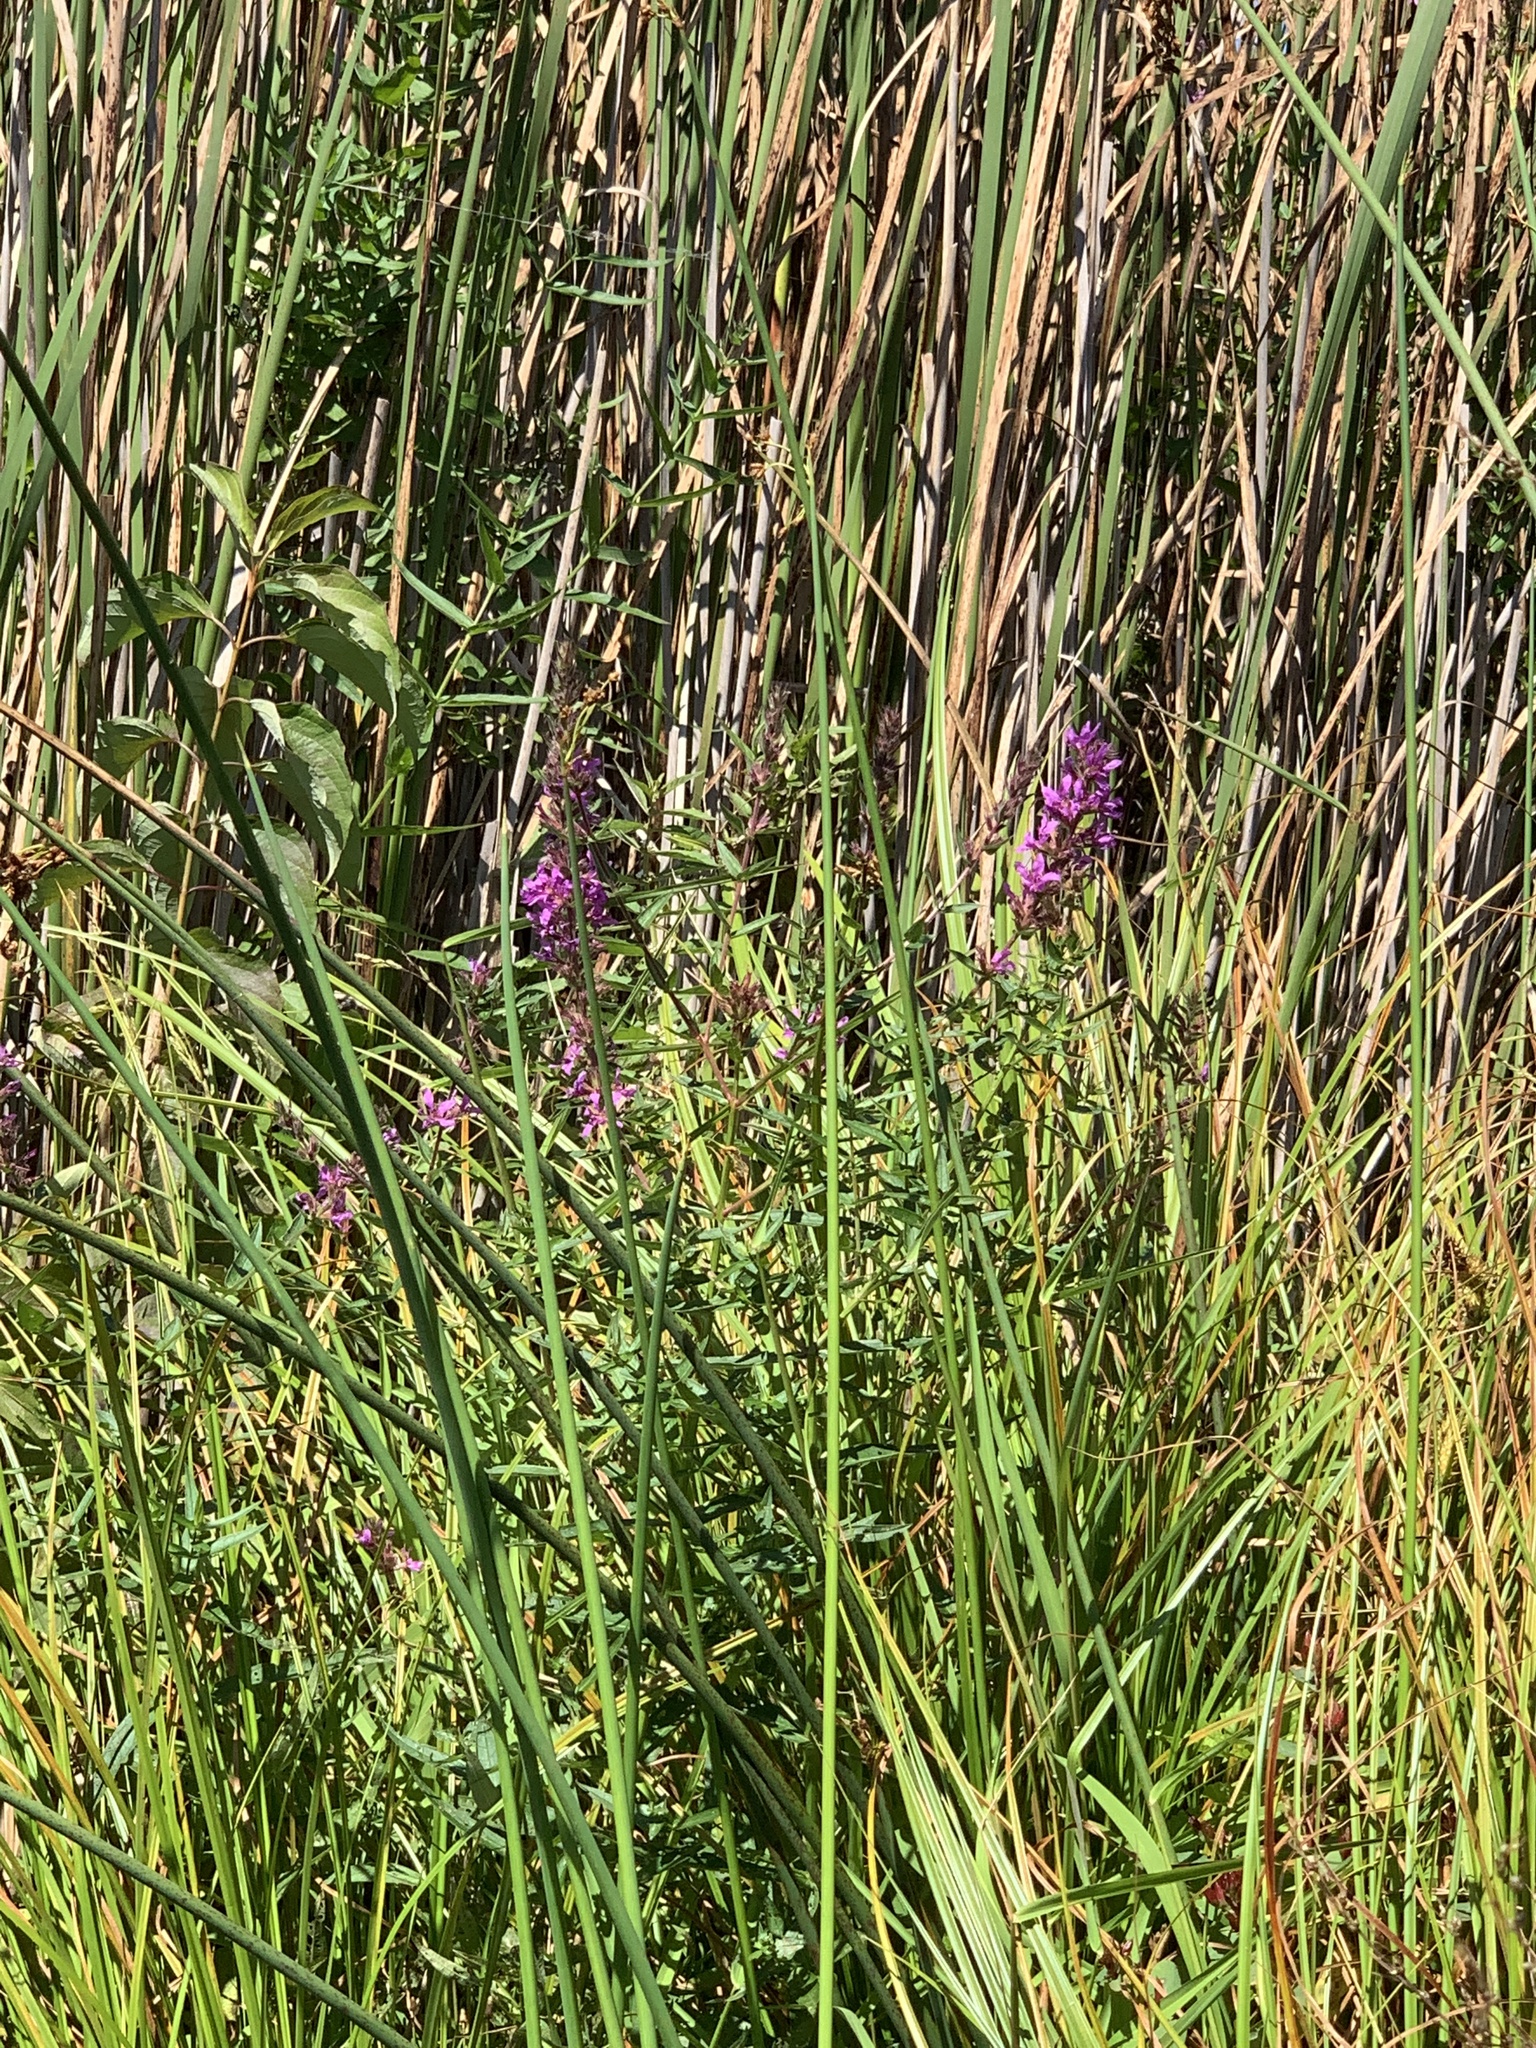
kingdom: Plantae
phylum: Tracheophyta
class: Magnoliopsida
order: Myrtales
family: Lythraceae
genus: Lythrum
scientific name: Lythrum salicaria
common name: Purple loosestrife
